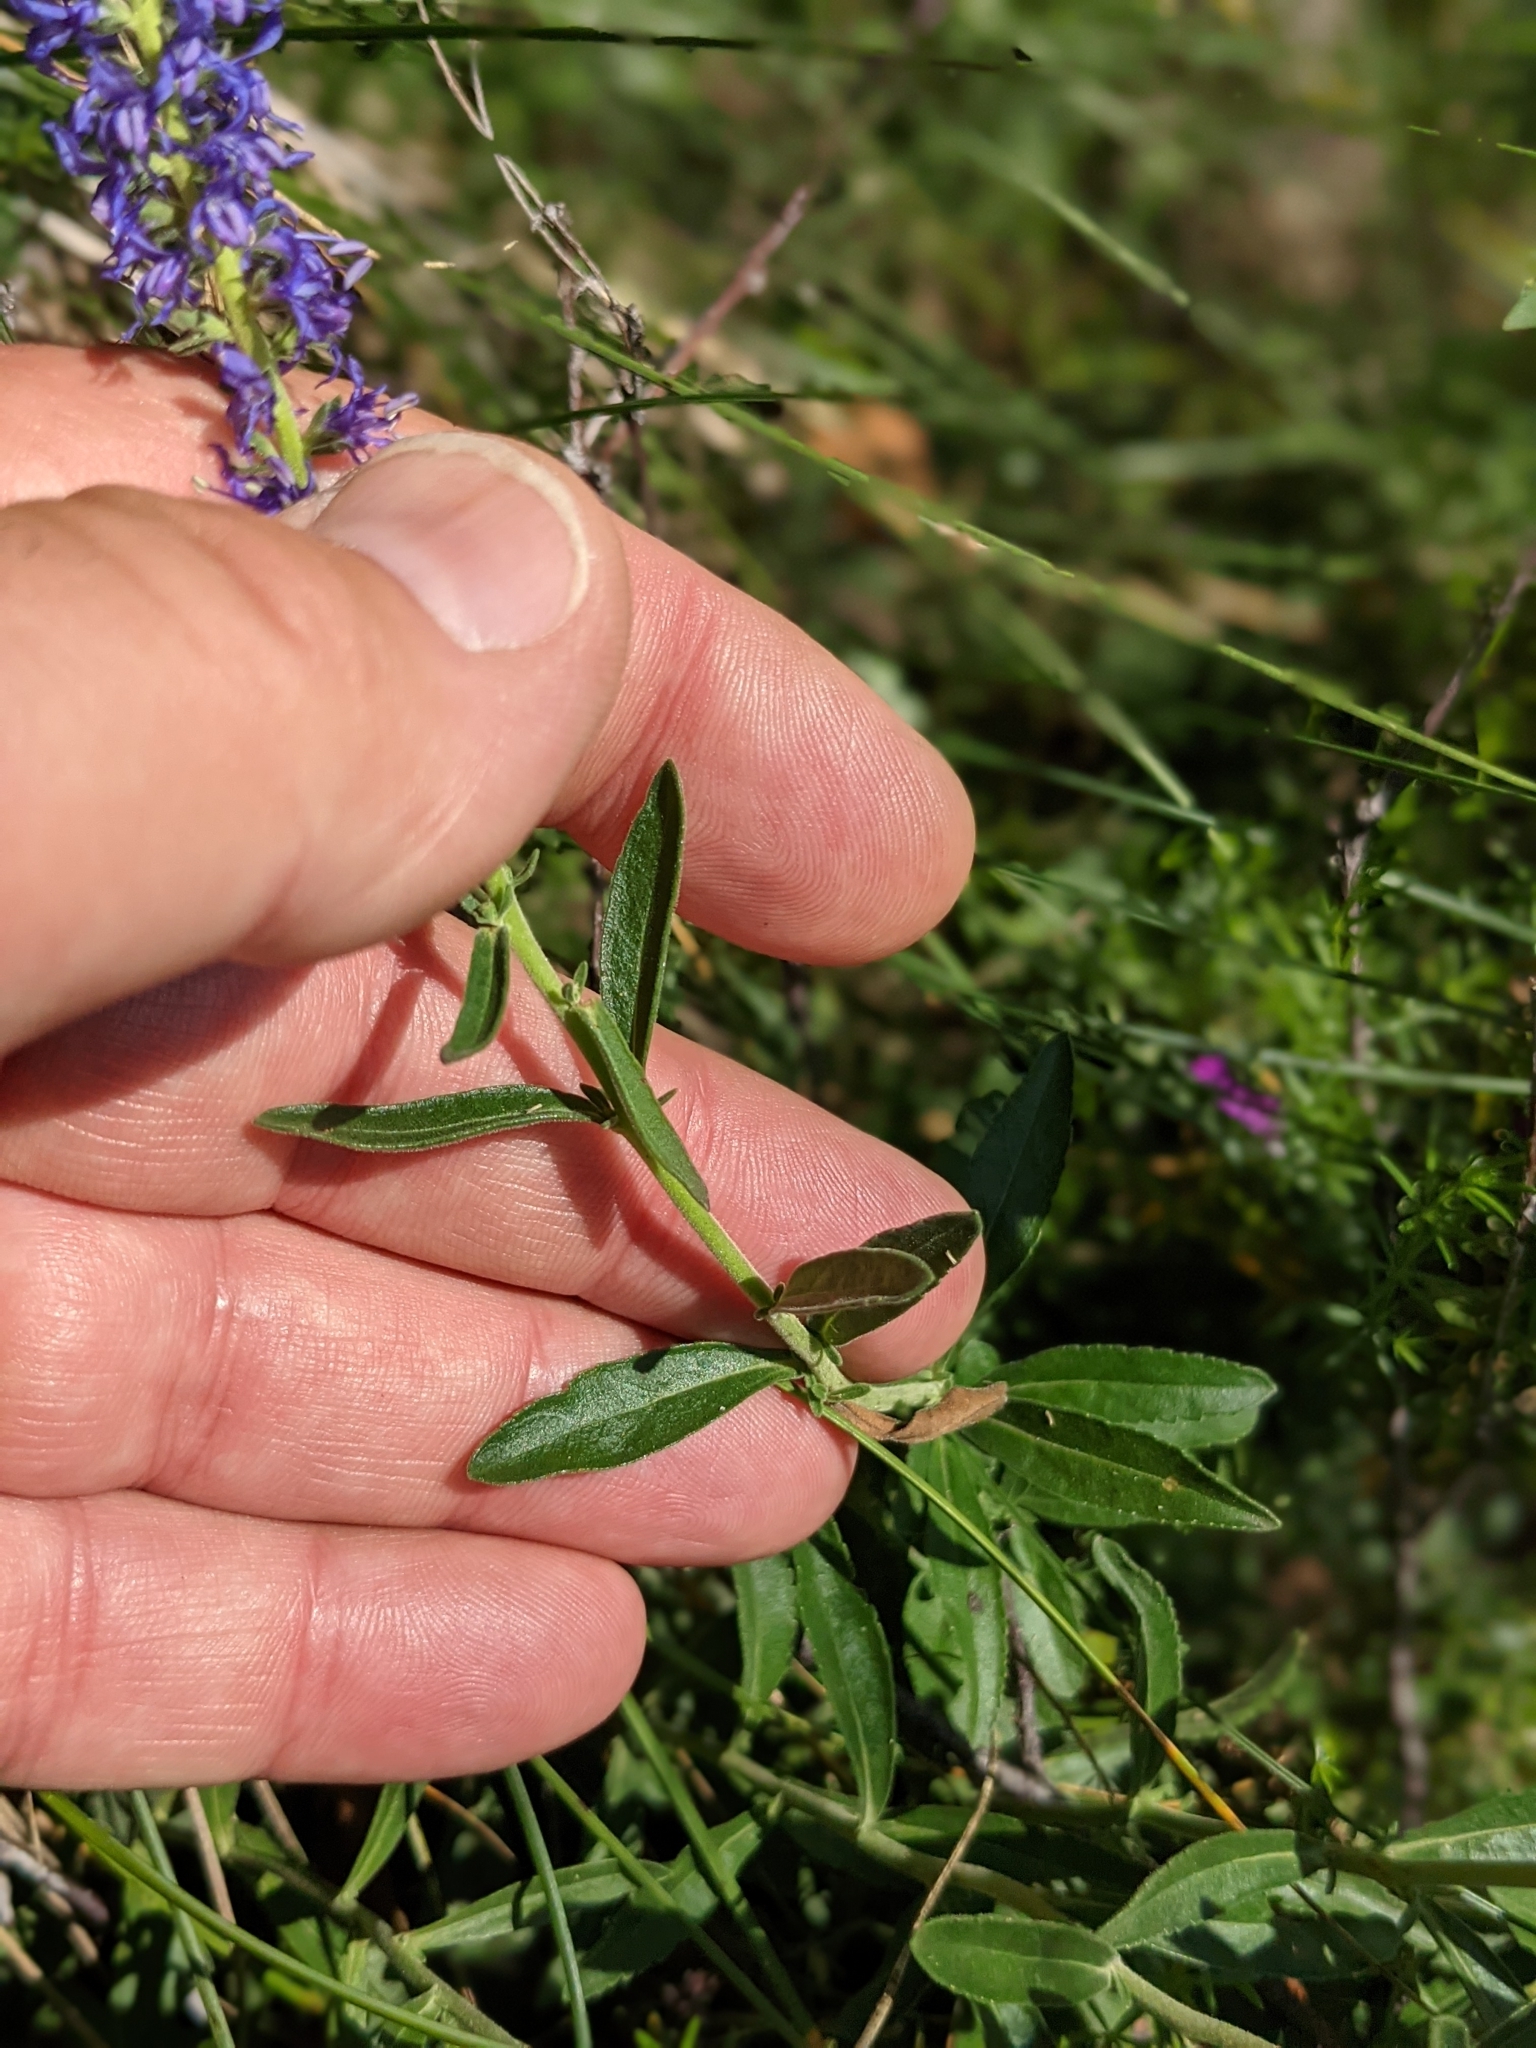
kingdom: Plantae
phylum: Tracheophyta
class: Magnoliopsida
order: Lamiales
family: Plantaginaceae
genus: Veronica
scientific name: Veronica spicata
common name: Spiked speedwell
